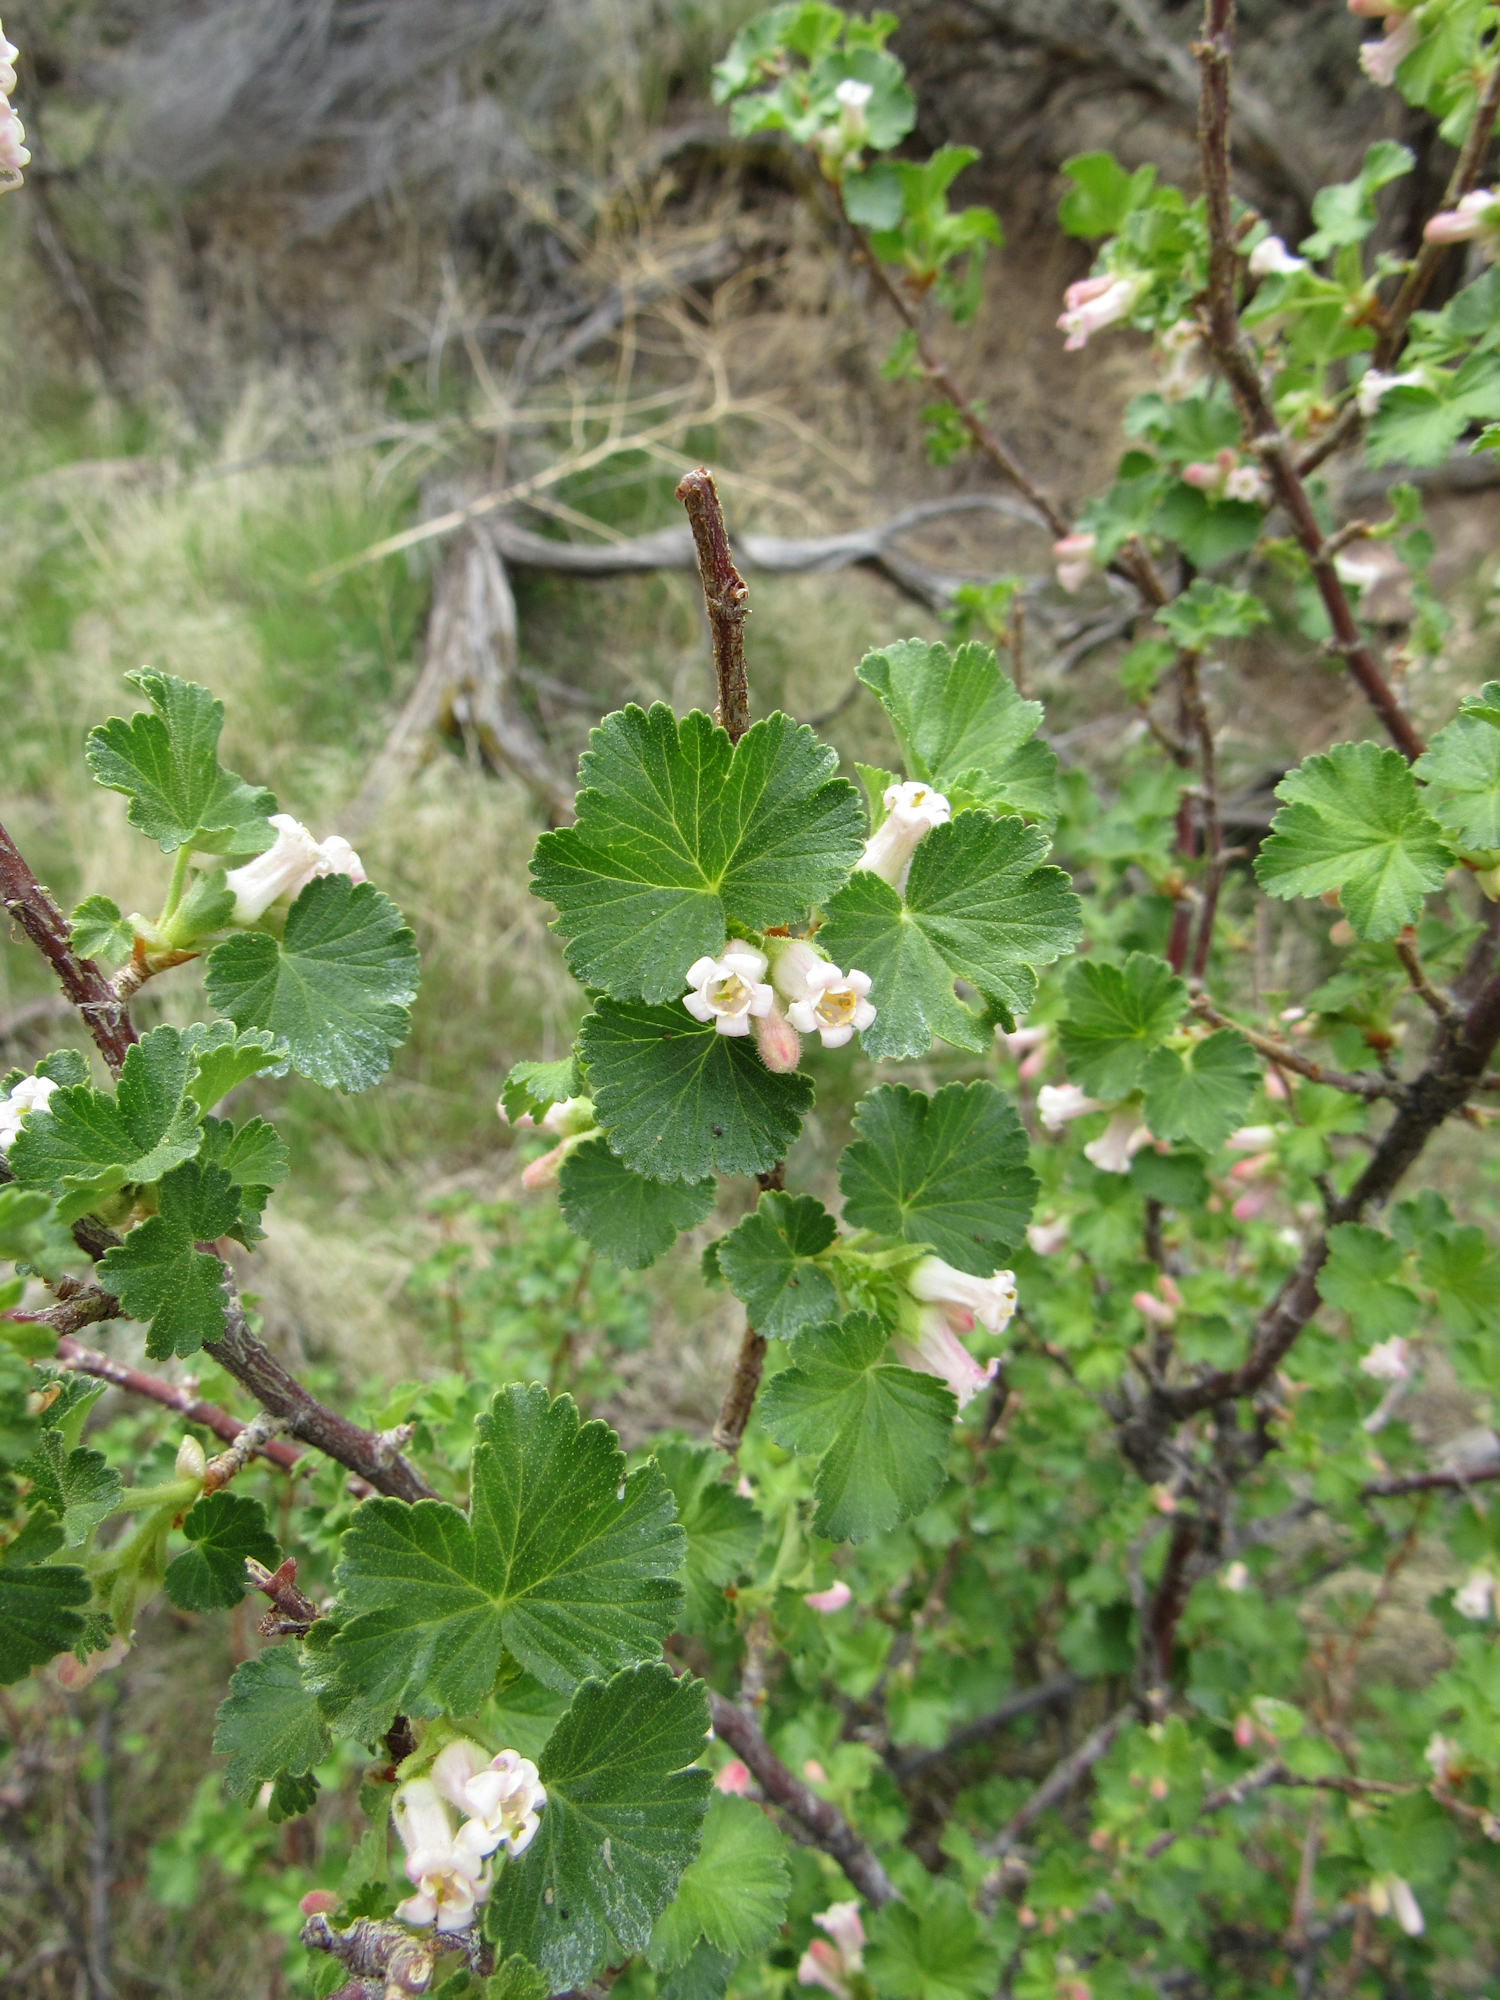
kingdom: Plantae
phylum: Tracheophyta
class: Magnoliopsida
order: Saxifragales
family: Grossulariaceae
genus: Ribes
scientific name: Ribes cereum
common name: Wax currant
